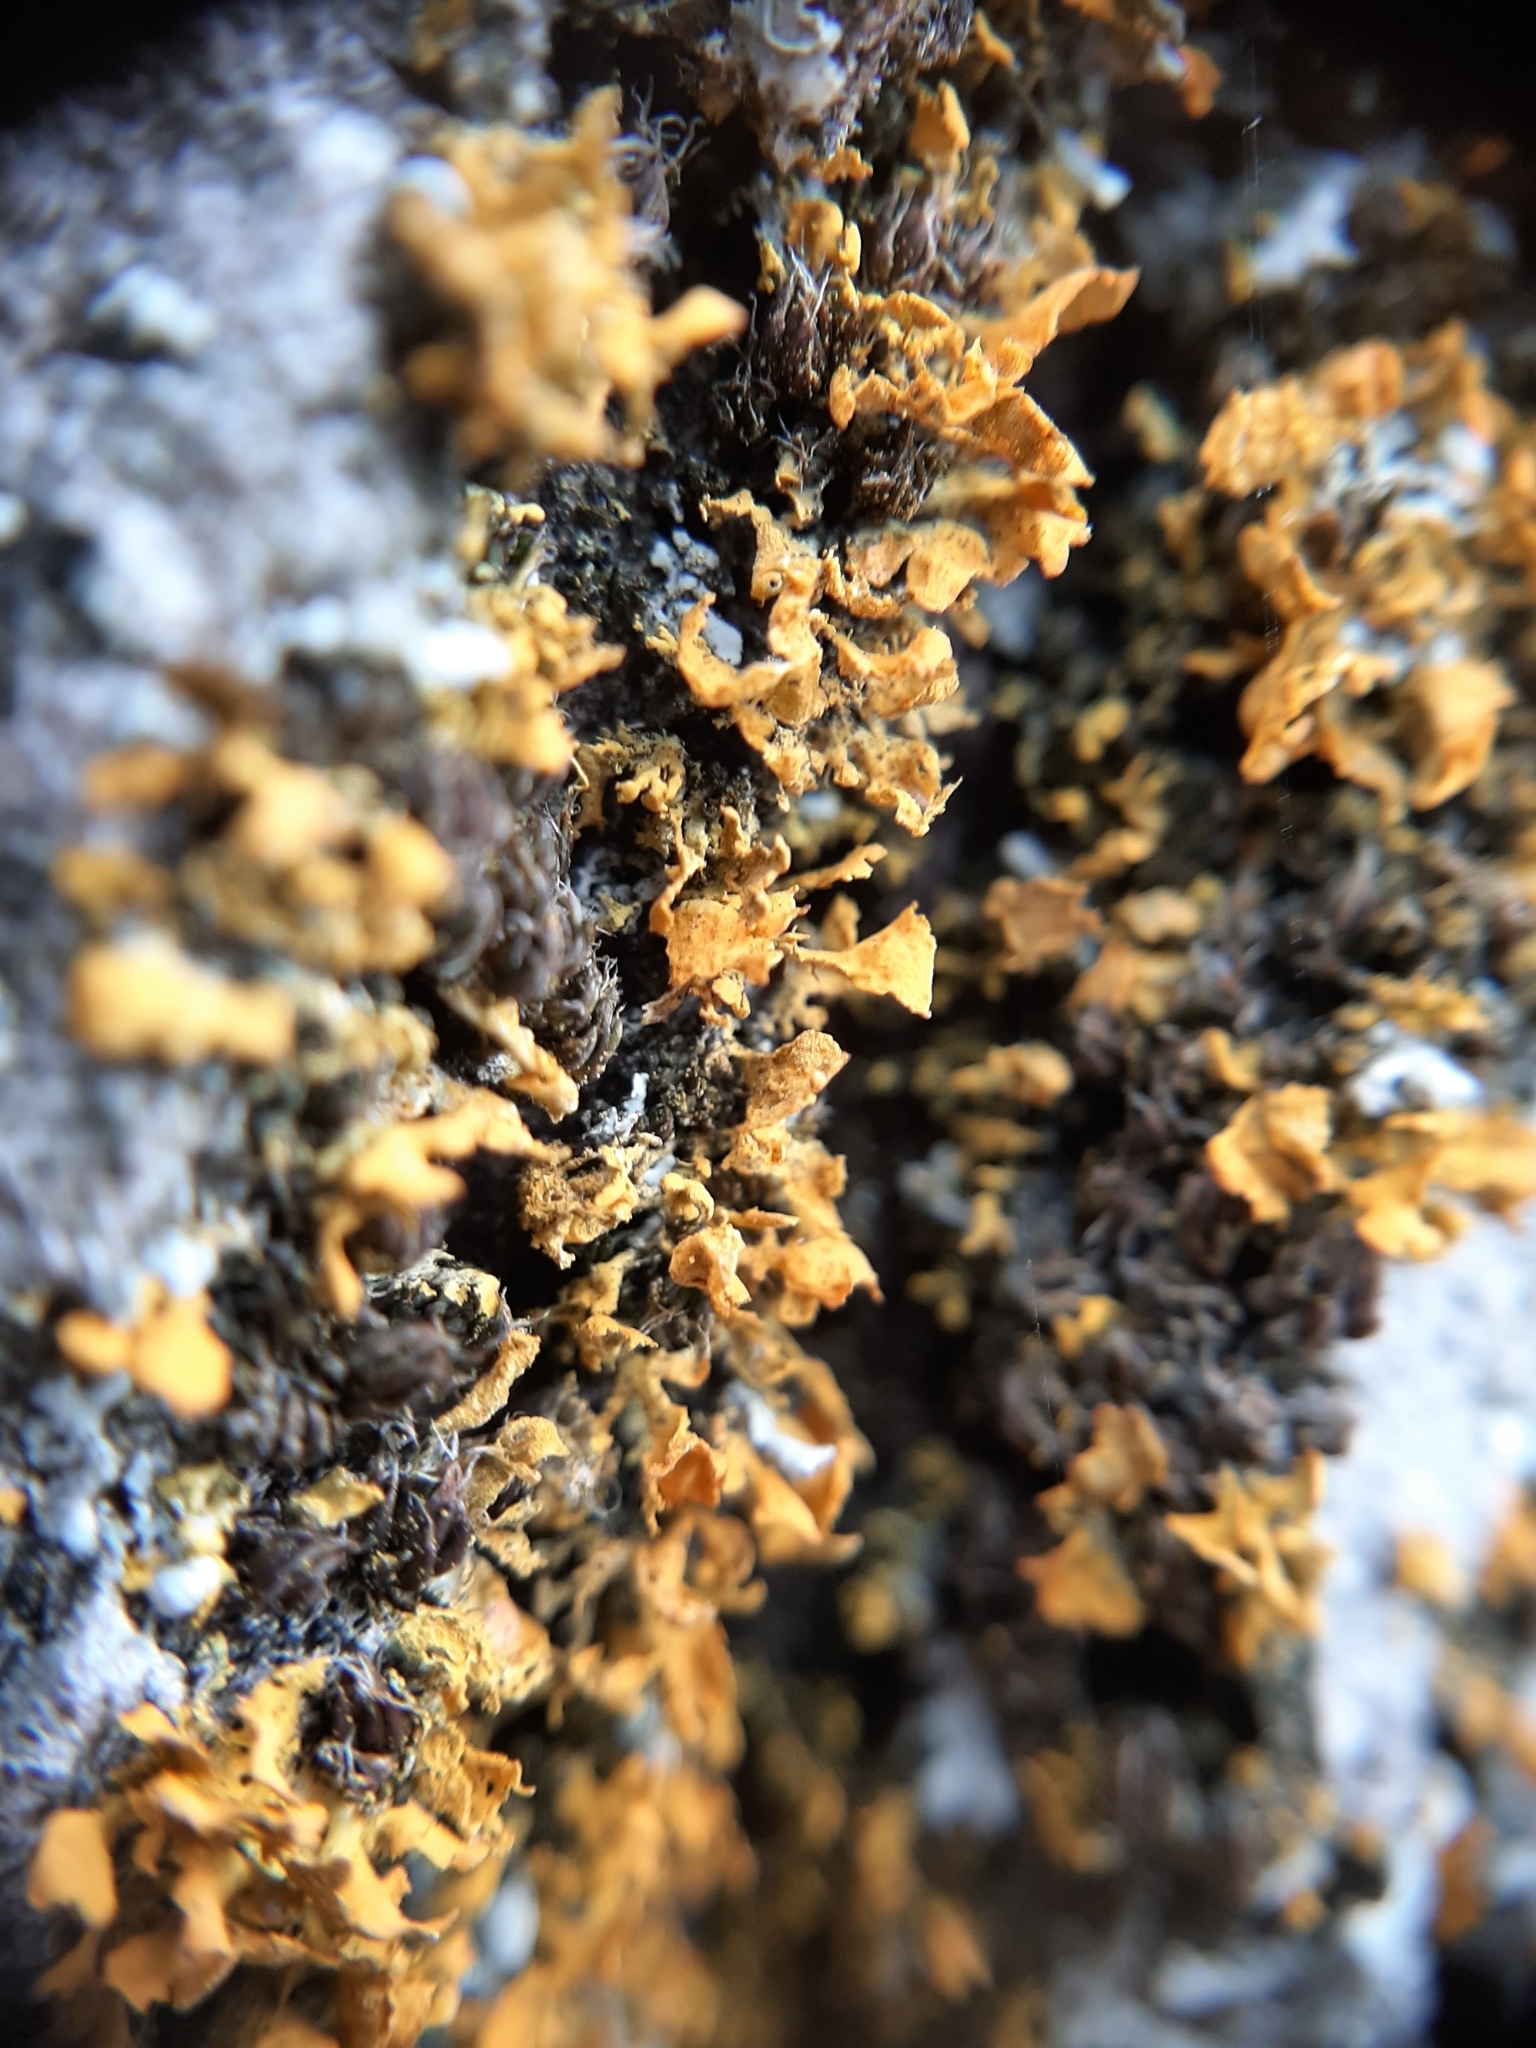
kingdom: Fungi
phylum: Ascomycota
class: Lecanoromycetes
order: Teloschistales
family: Teloschistaceae
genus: Teloschistes
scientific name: Teloschistes velifer
